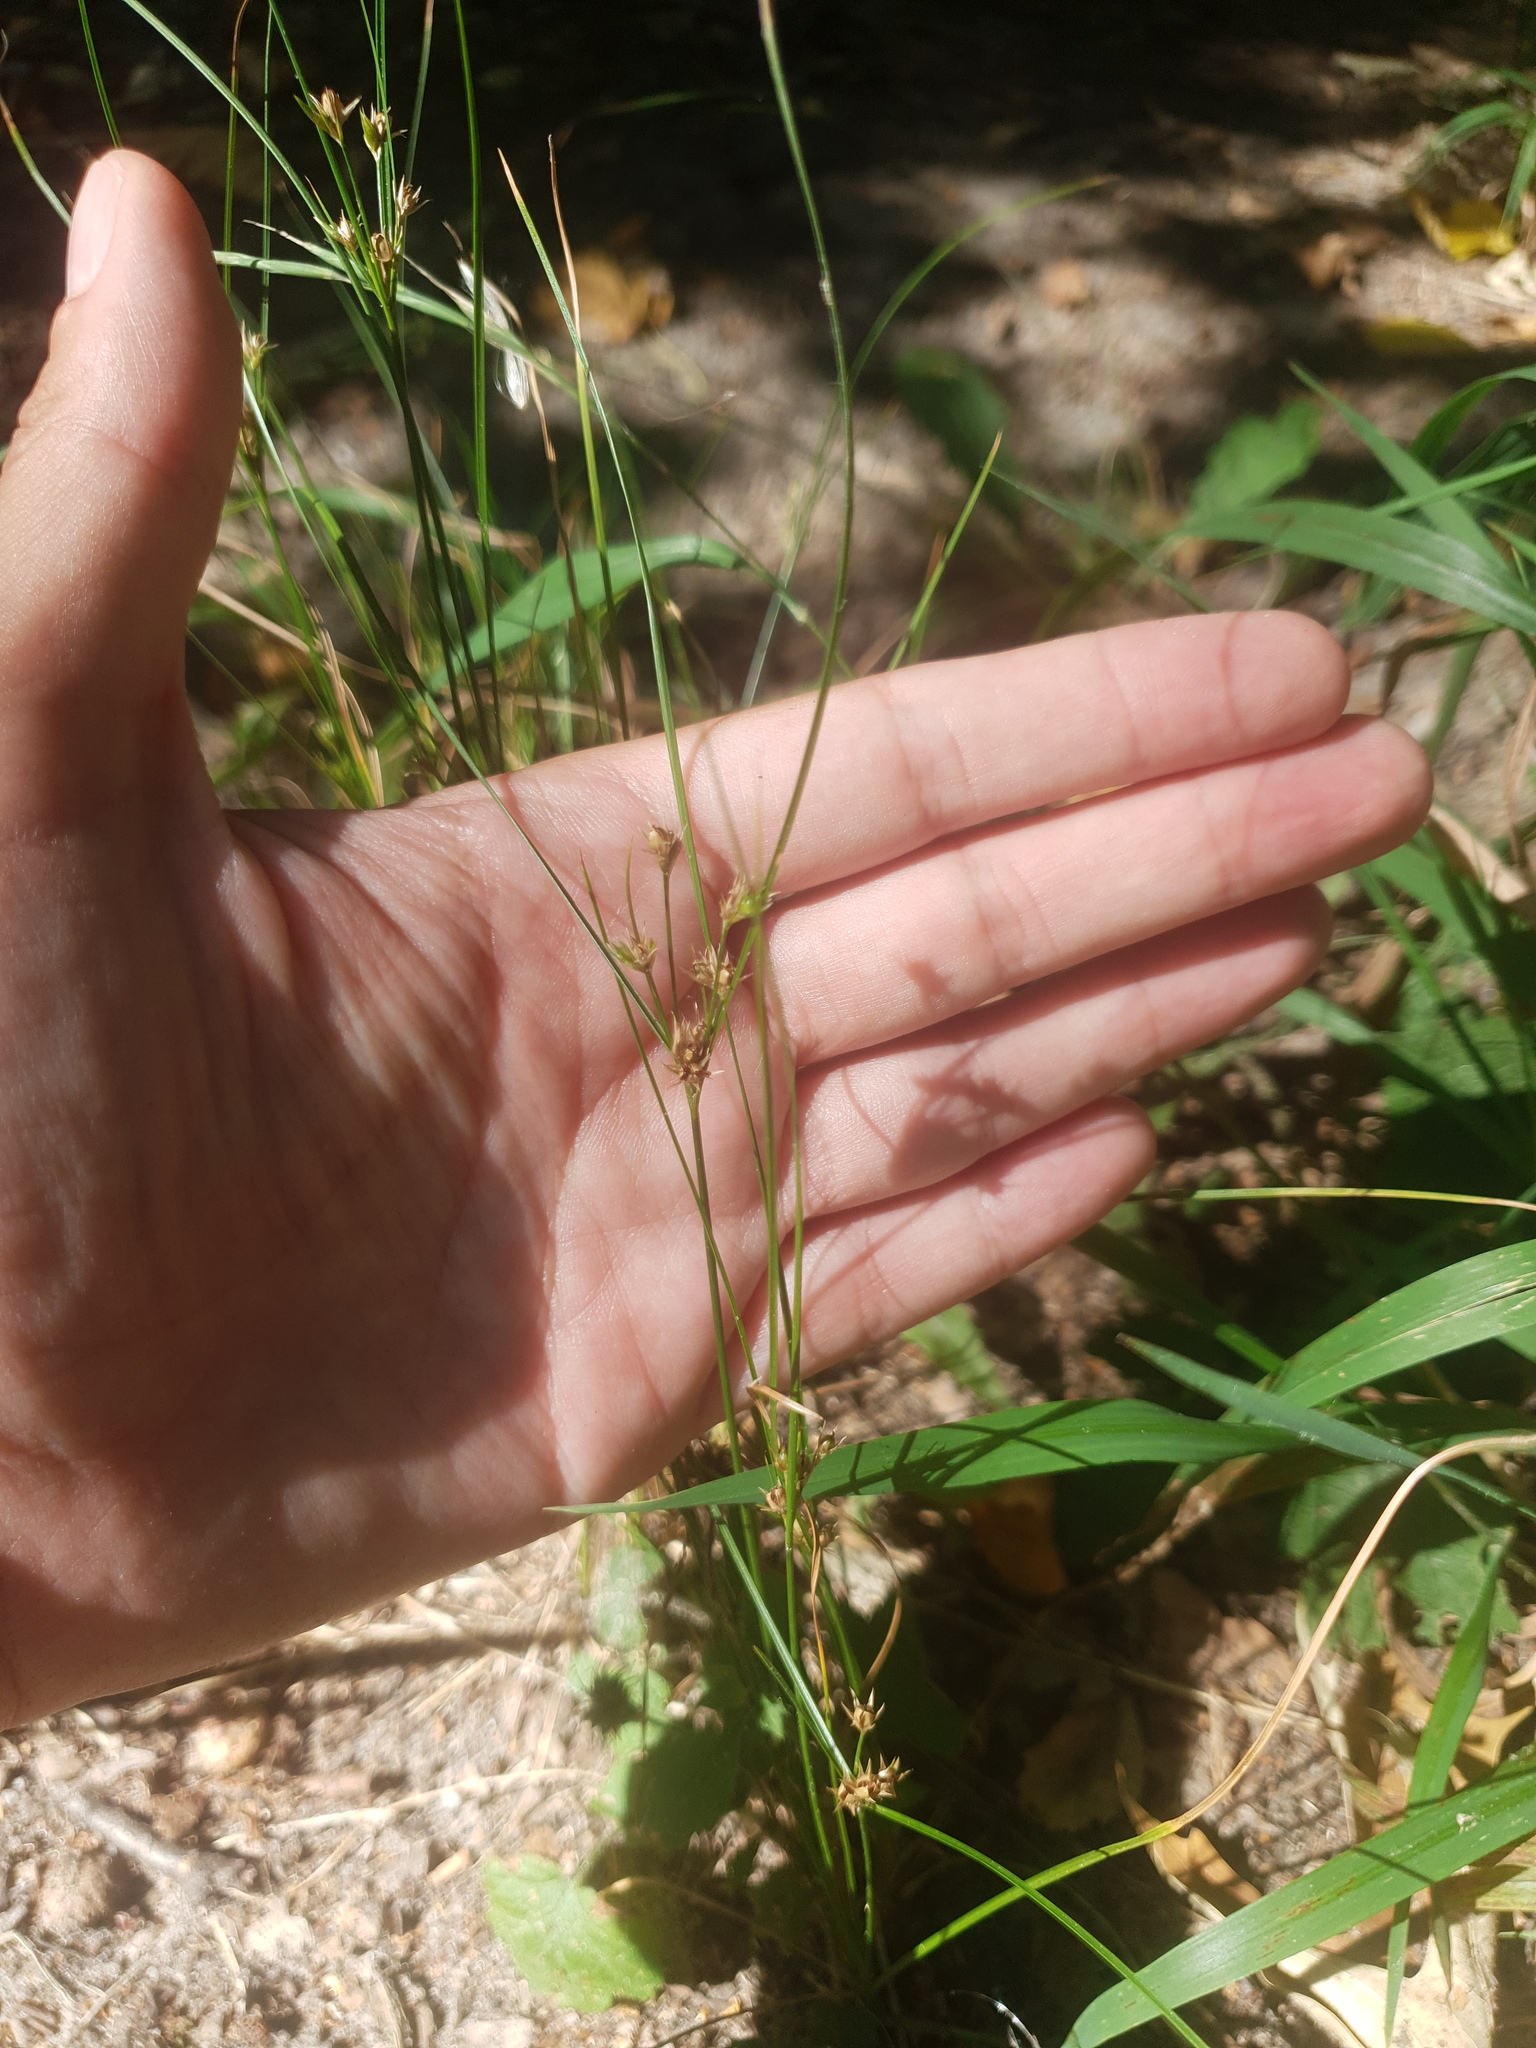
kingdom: Plantae
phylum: Tracheophyta
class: Liliopsida
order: Poales
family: Juncaceae
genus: Juncus
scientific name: Juncus tenuis
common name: Slender rush
